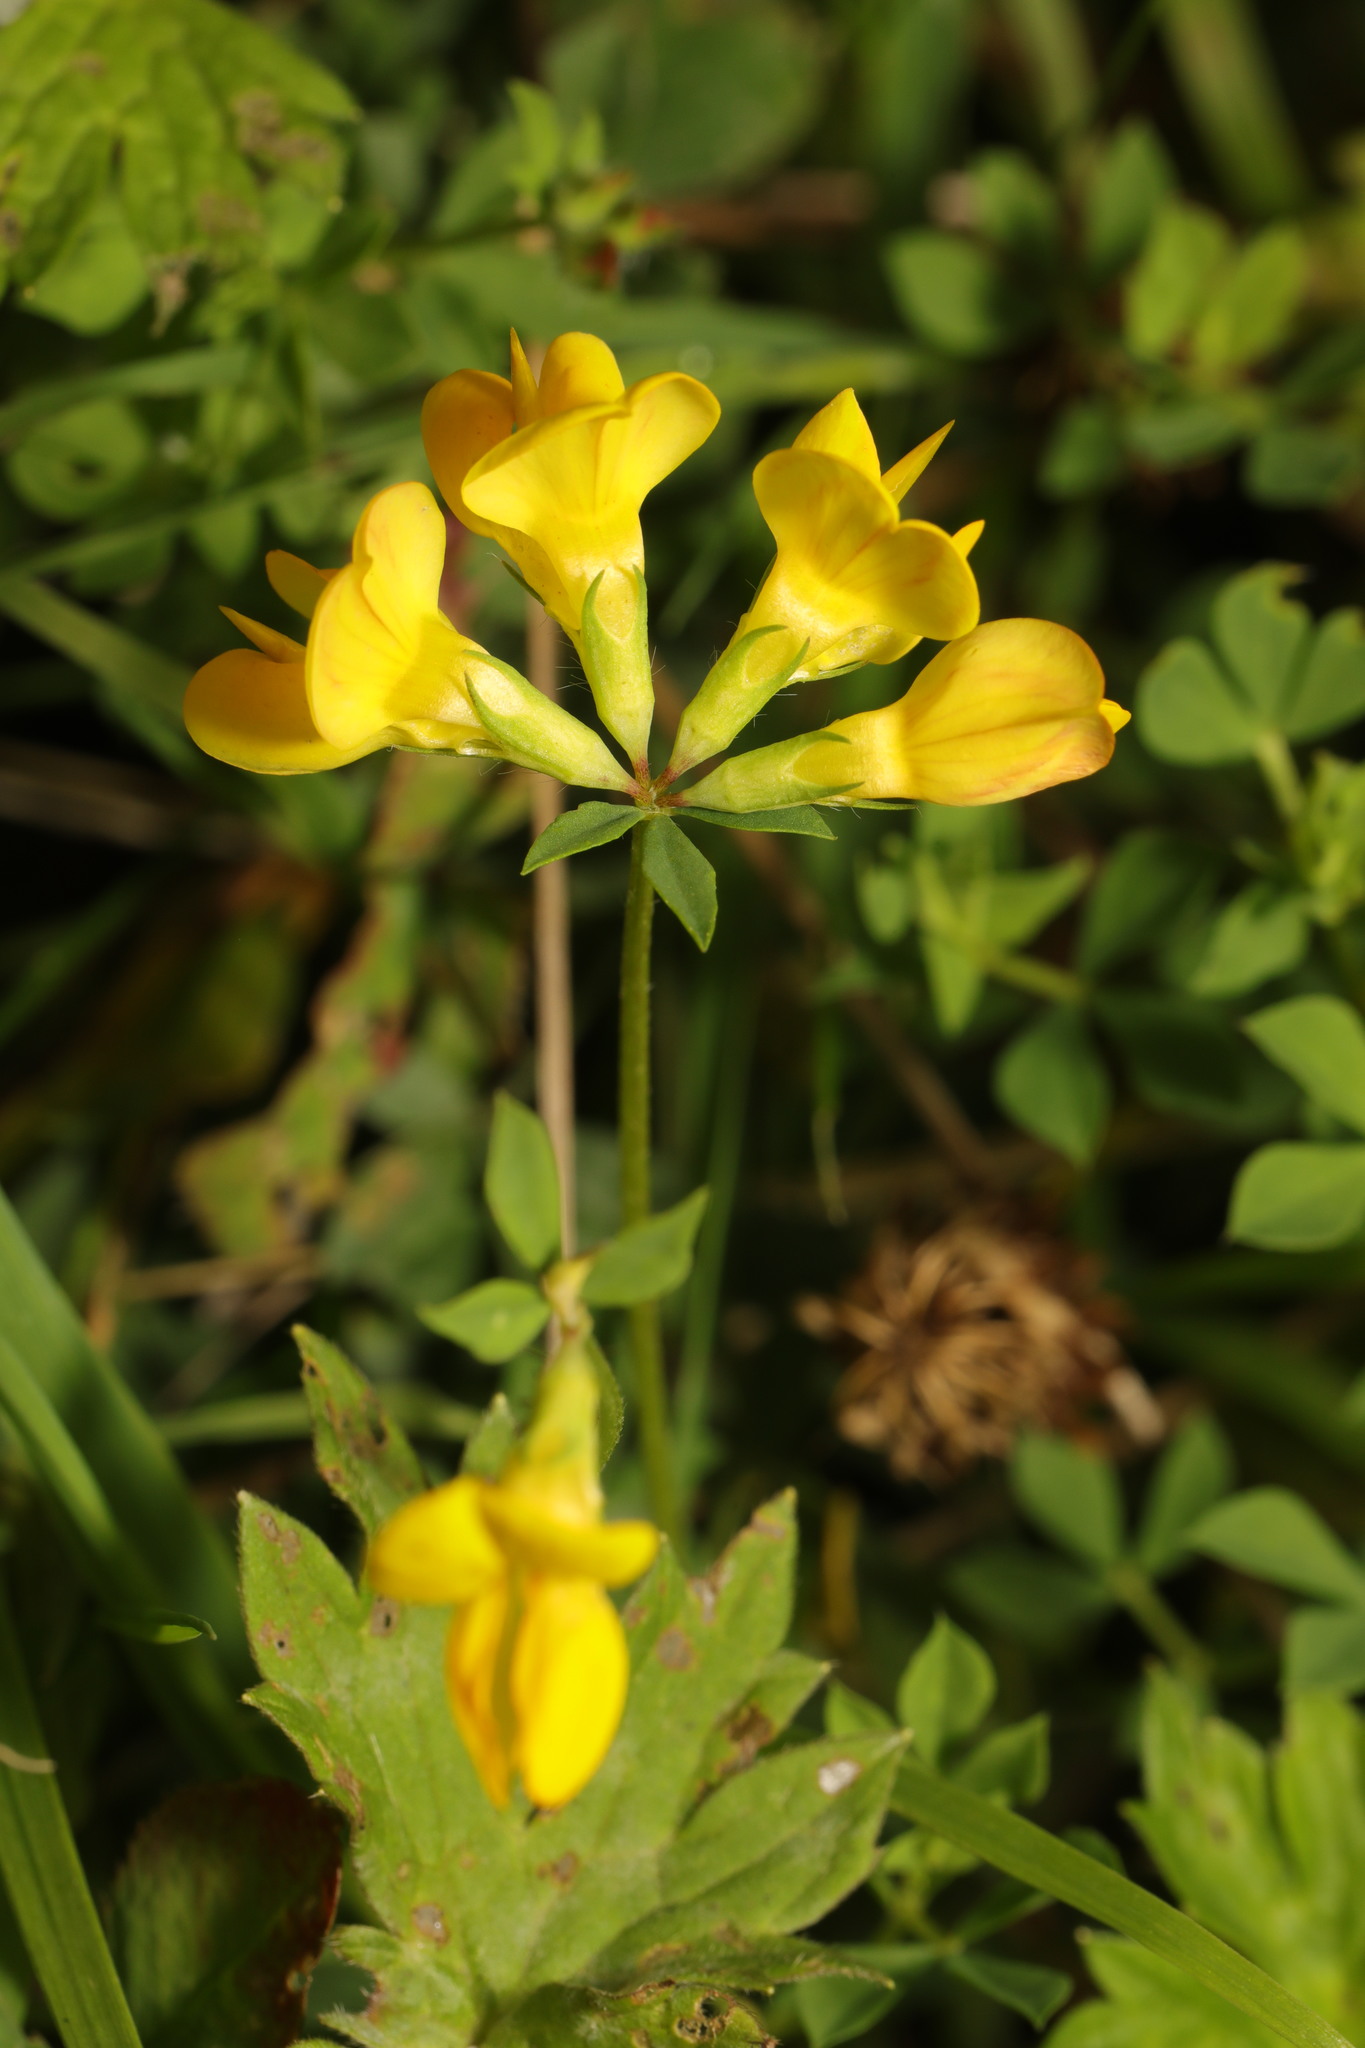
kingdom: Plantae
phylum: Tracheophyta
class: Magnoliopsida
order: Fabales
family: Fabaceae
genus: Lotus
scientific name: Lotus corniculatus
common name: Common bird's-foot-trefoil
